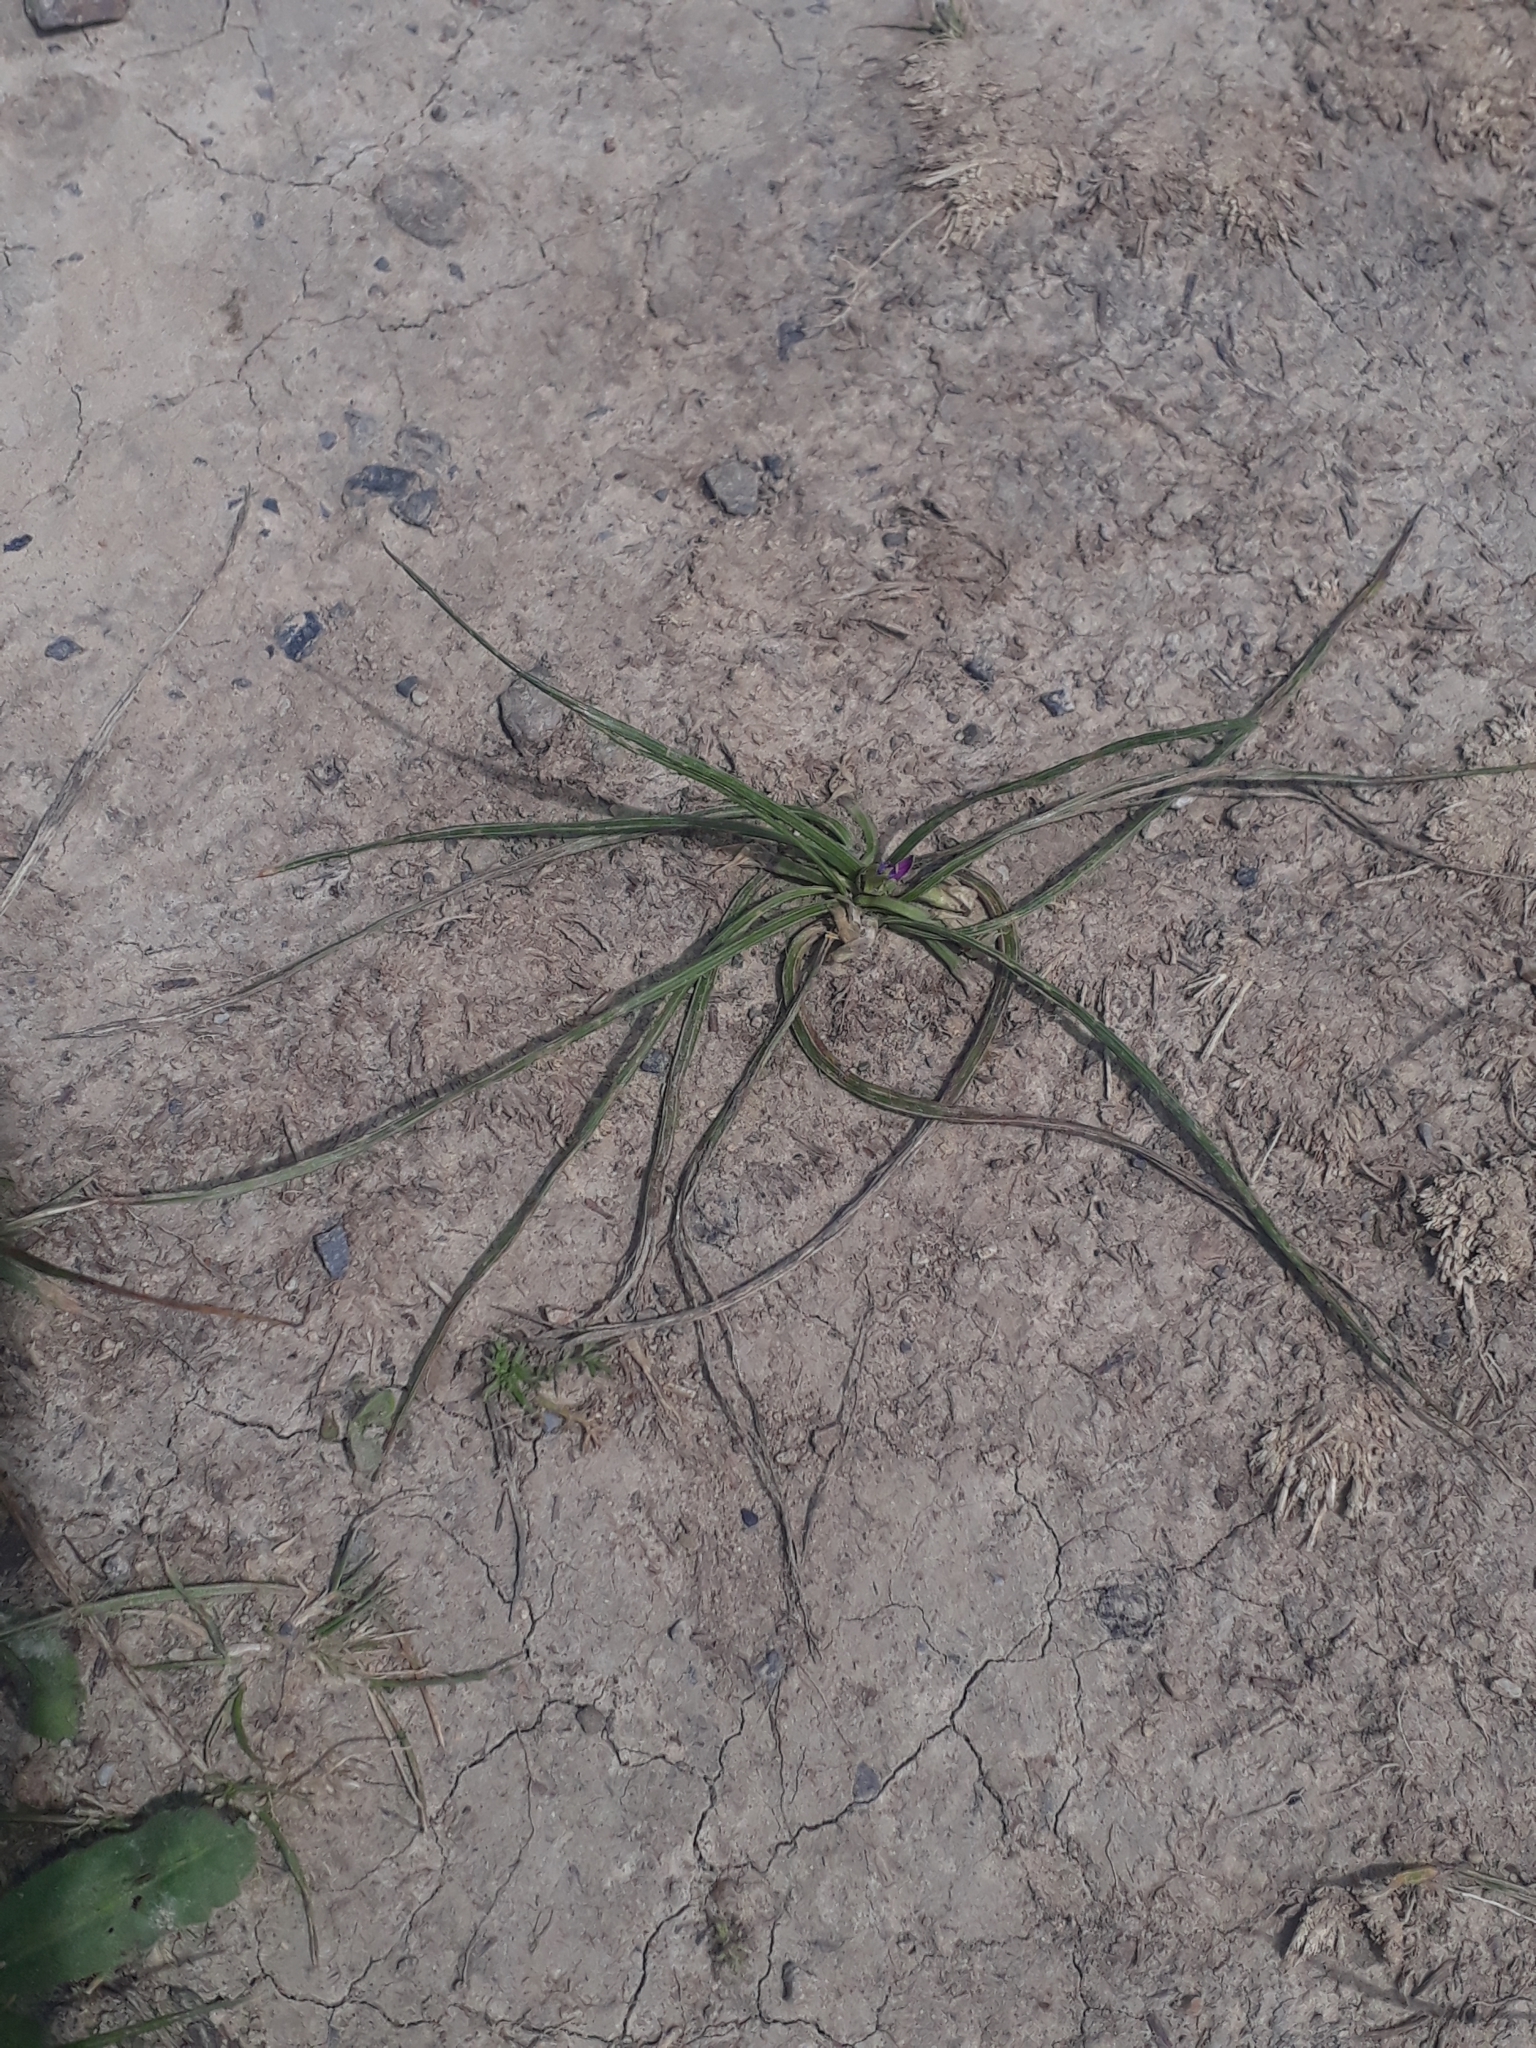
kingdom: Plantae
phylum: Tracheophyta
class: Liliopsida
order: Asparagales
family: Iridaceae
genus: Romulea
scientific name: Romulea rosea
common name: Oniongrass
